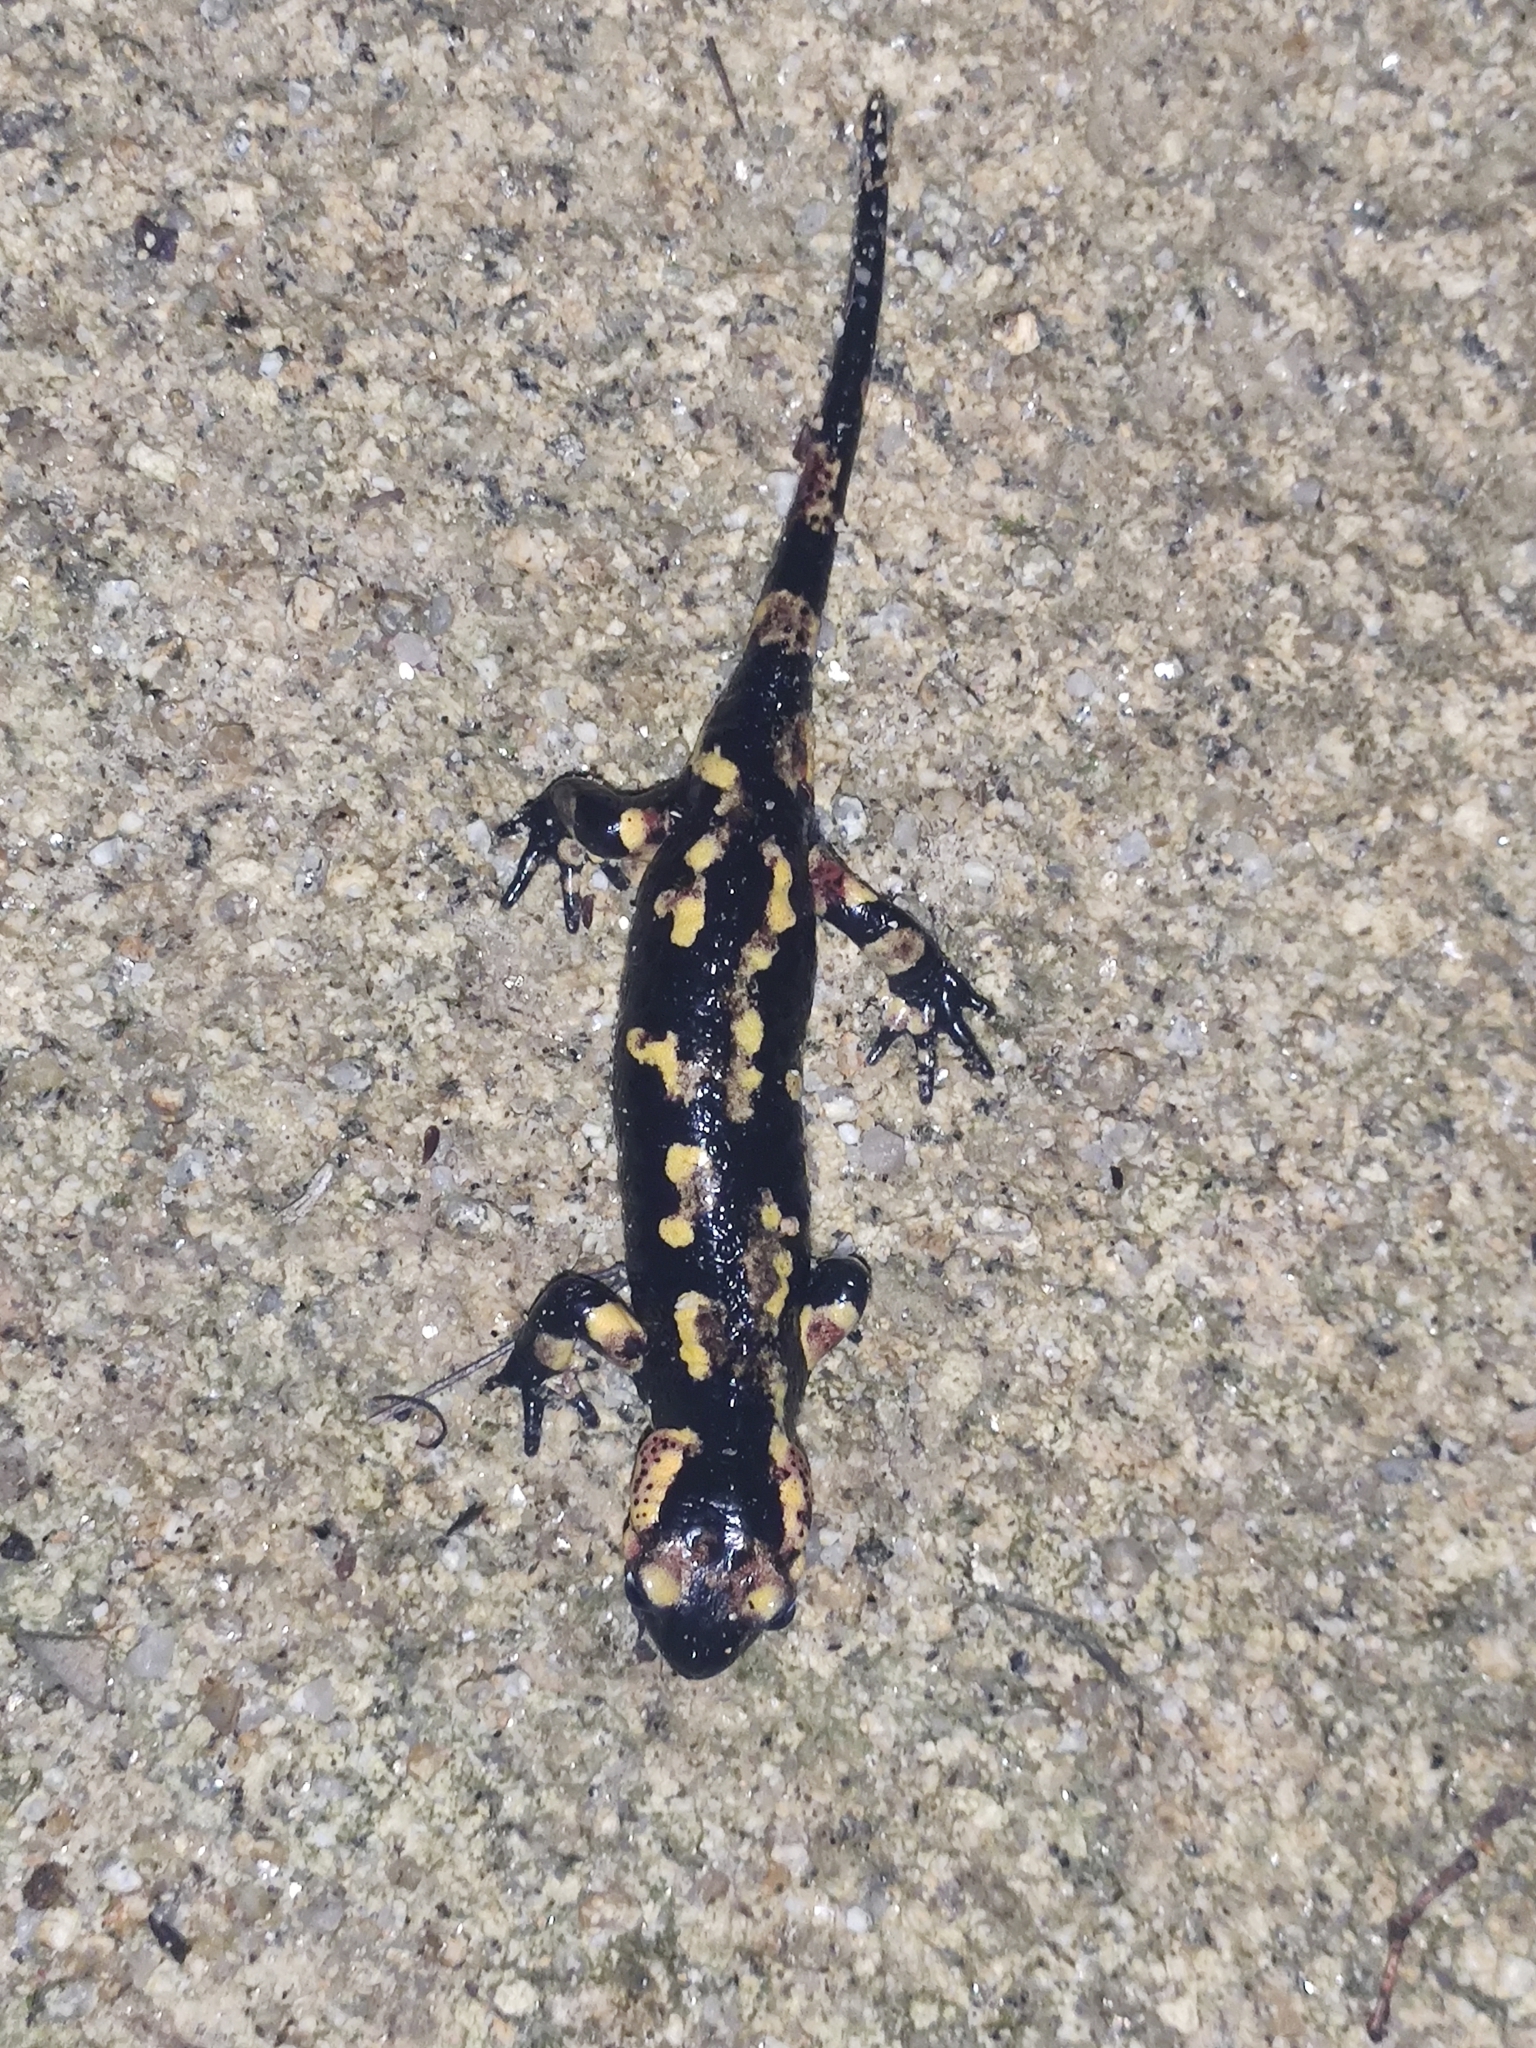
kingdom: Animalia
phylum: Chordata
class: Amphibia
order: Caudata
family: Salamandridae
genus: Salamandra
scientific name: Salamandra salamandra
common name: Fire salamander
